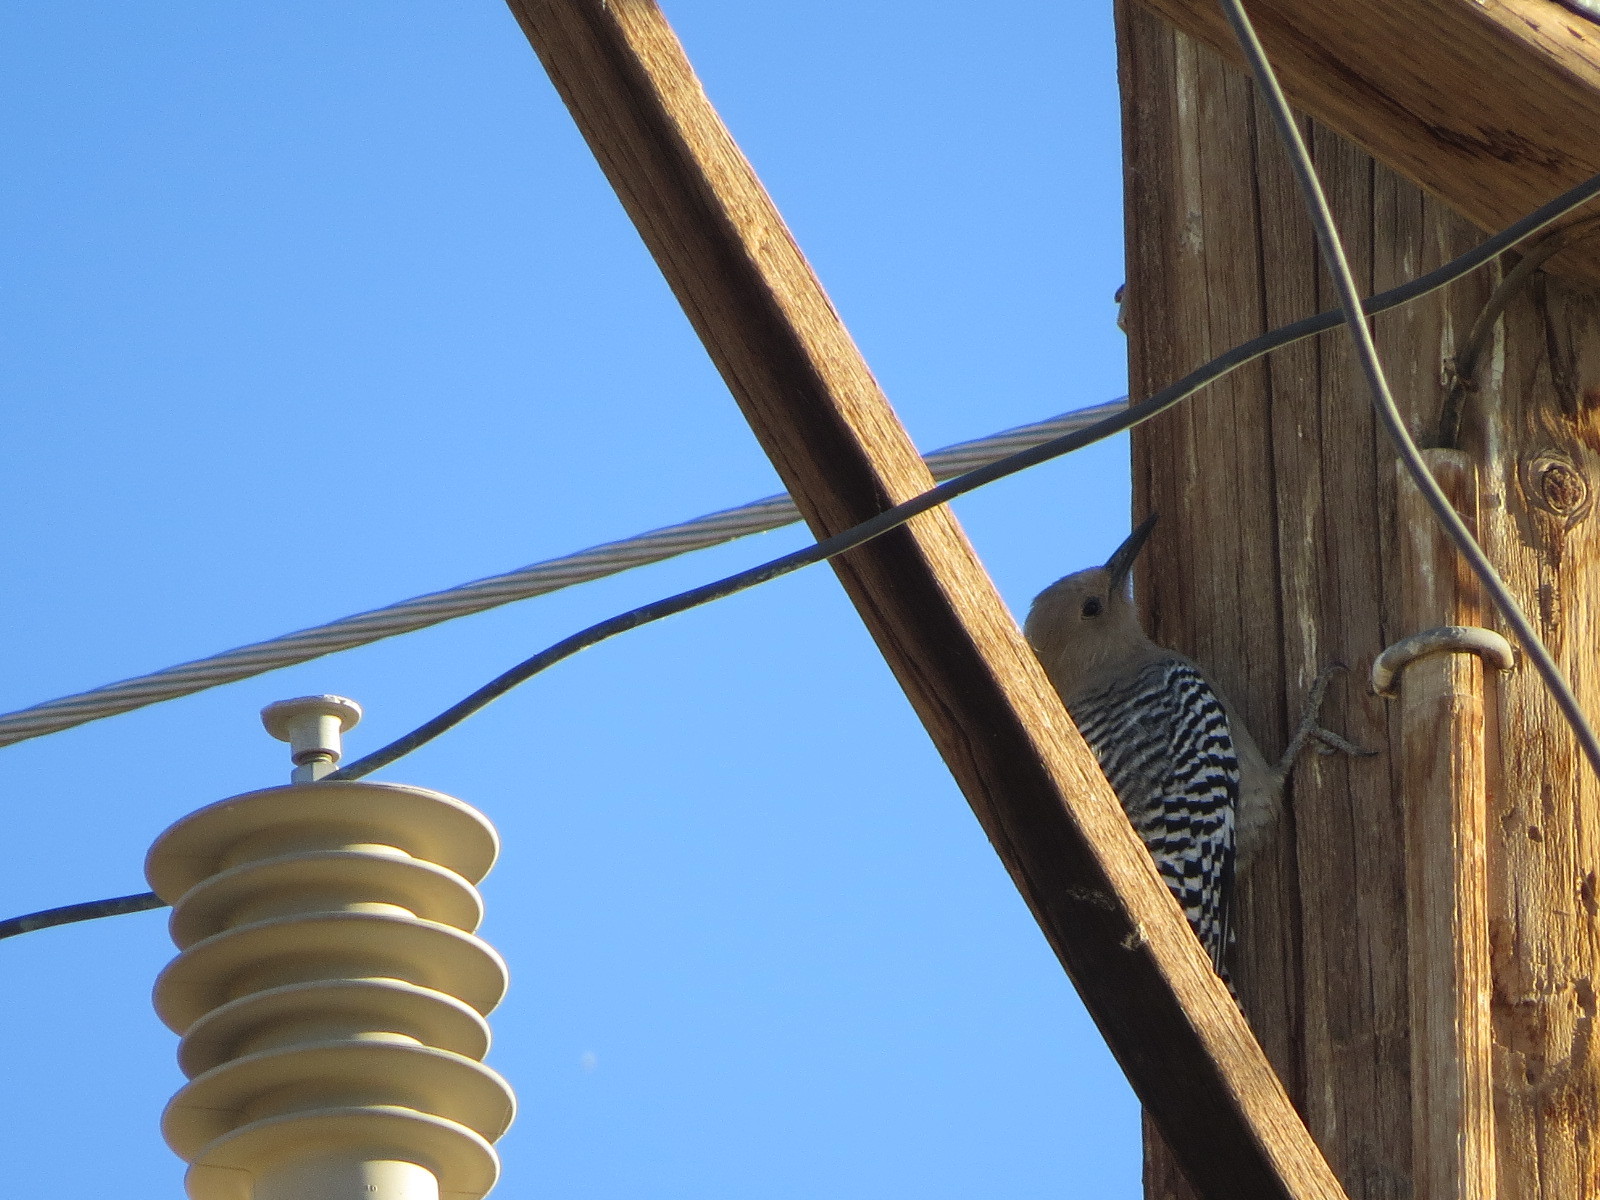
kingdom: Animalia
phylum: Chordata
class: Aves
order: Piciformes
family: Picidae
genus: Melanerpes
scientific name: Melanerpes uropygialis
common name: Gila woodpecker
